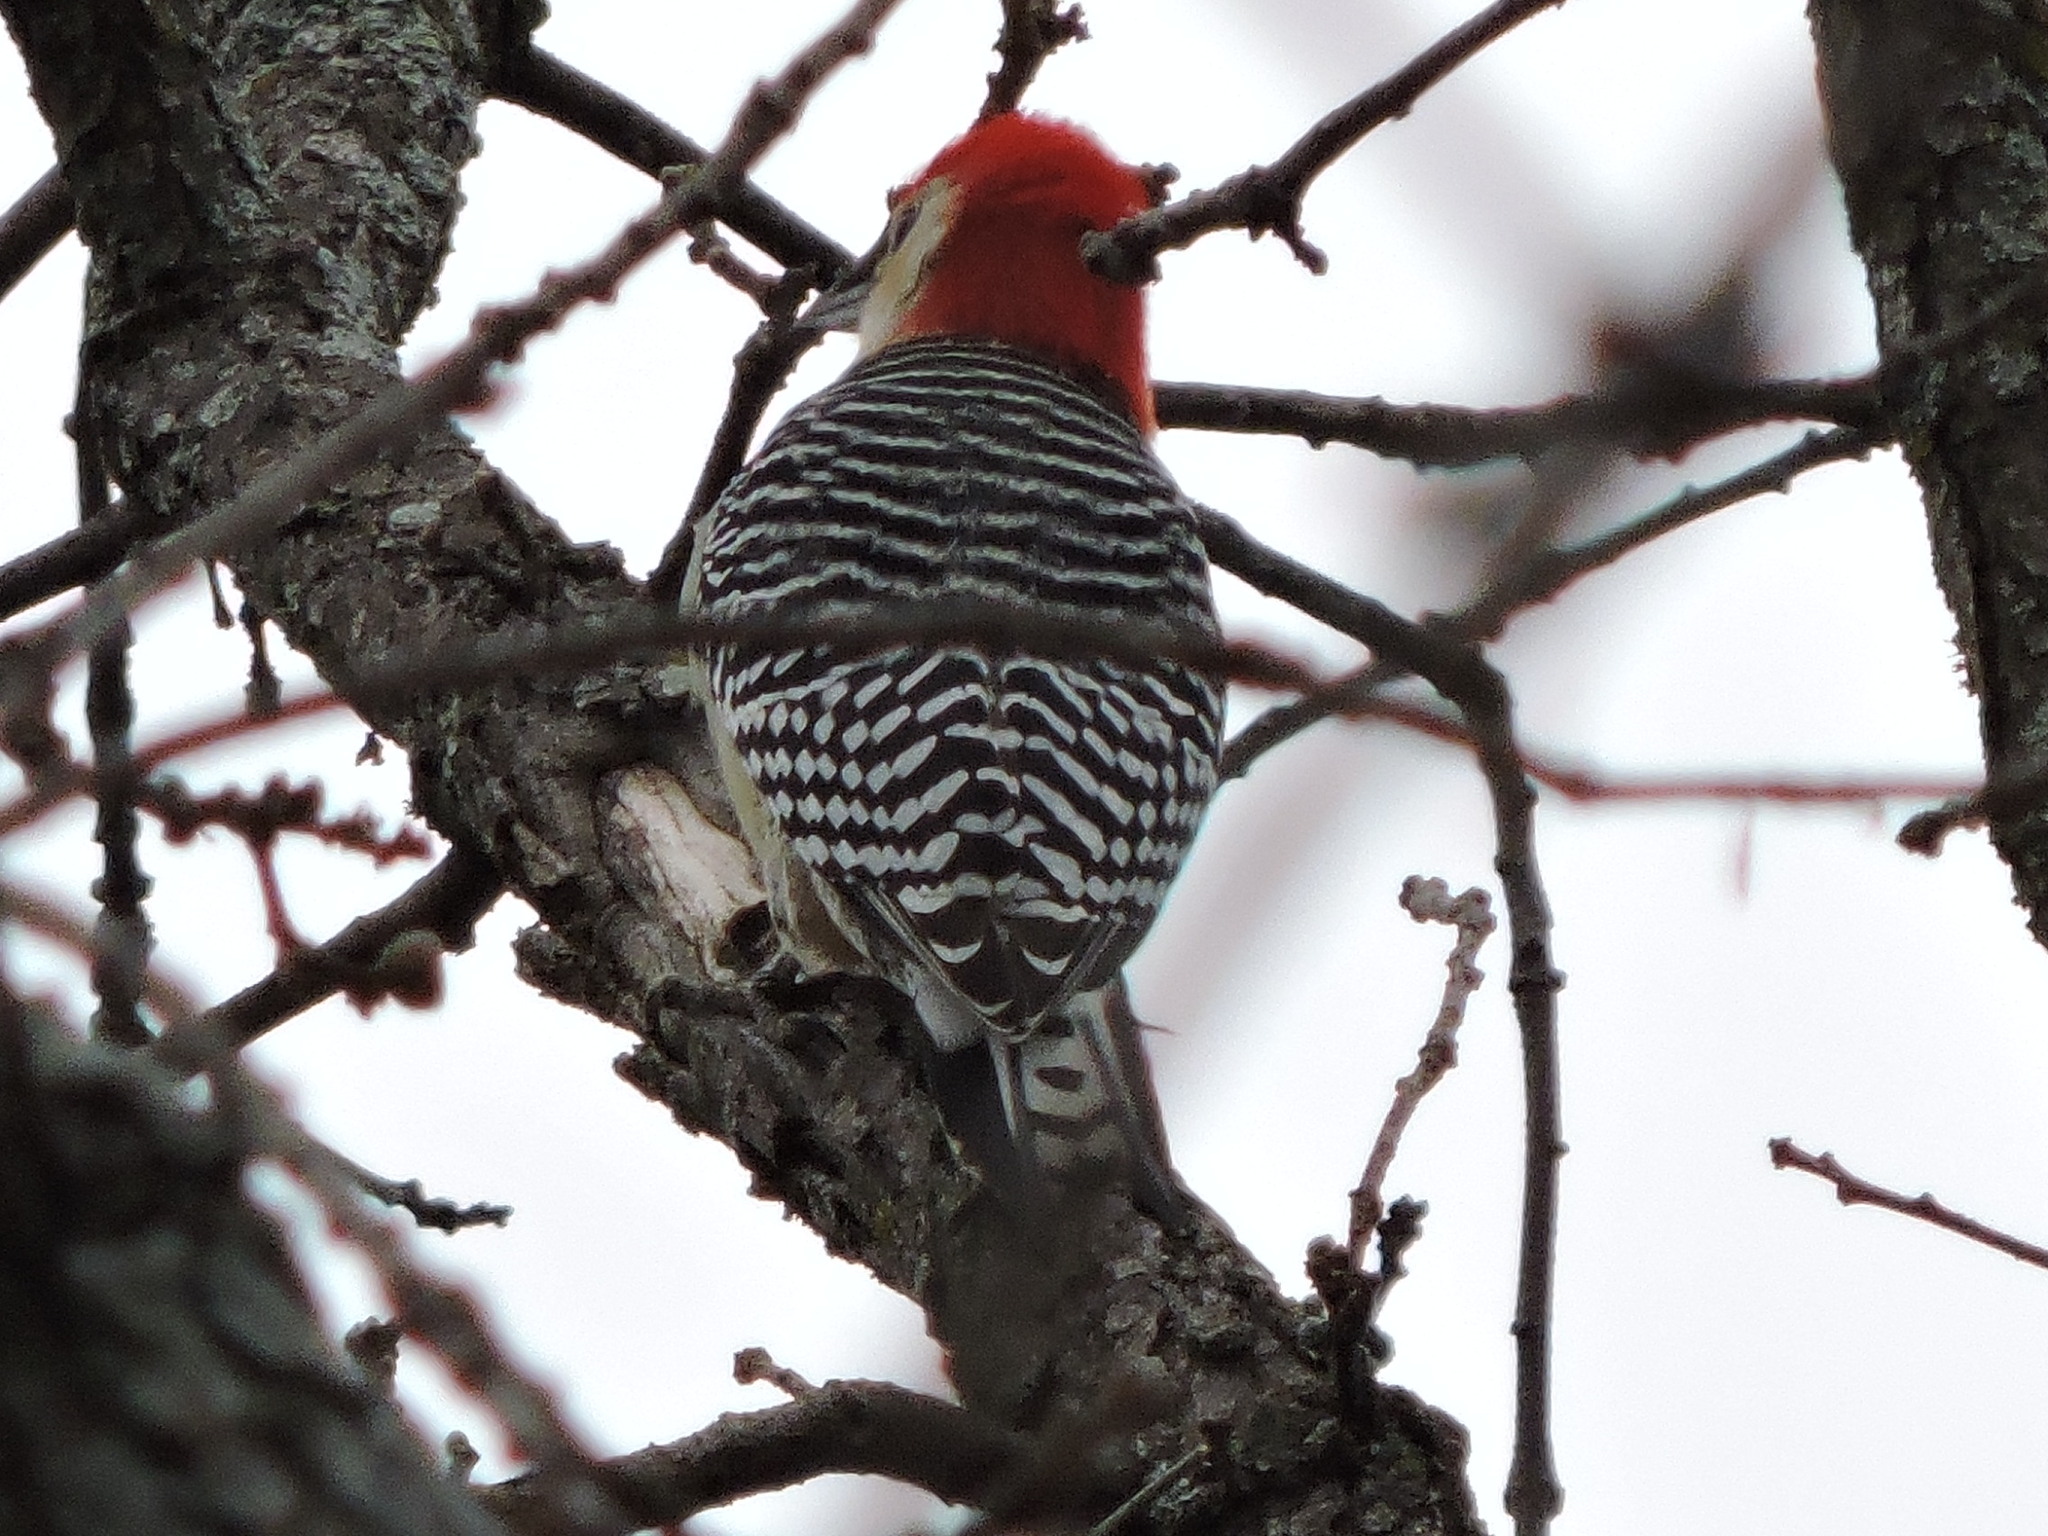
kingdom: Animalia
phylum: Chordata
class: Aves
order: Piciformes
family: Picidae
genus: Melanerpes
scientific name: Melanerpes carolinus
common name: Red-bellied woodpecker
